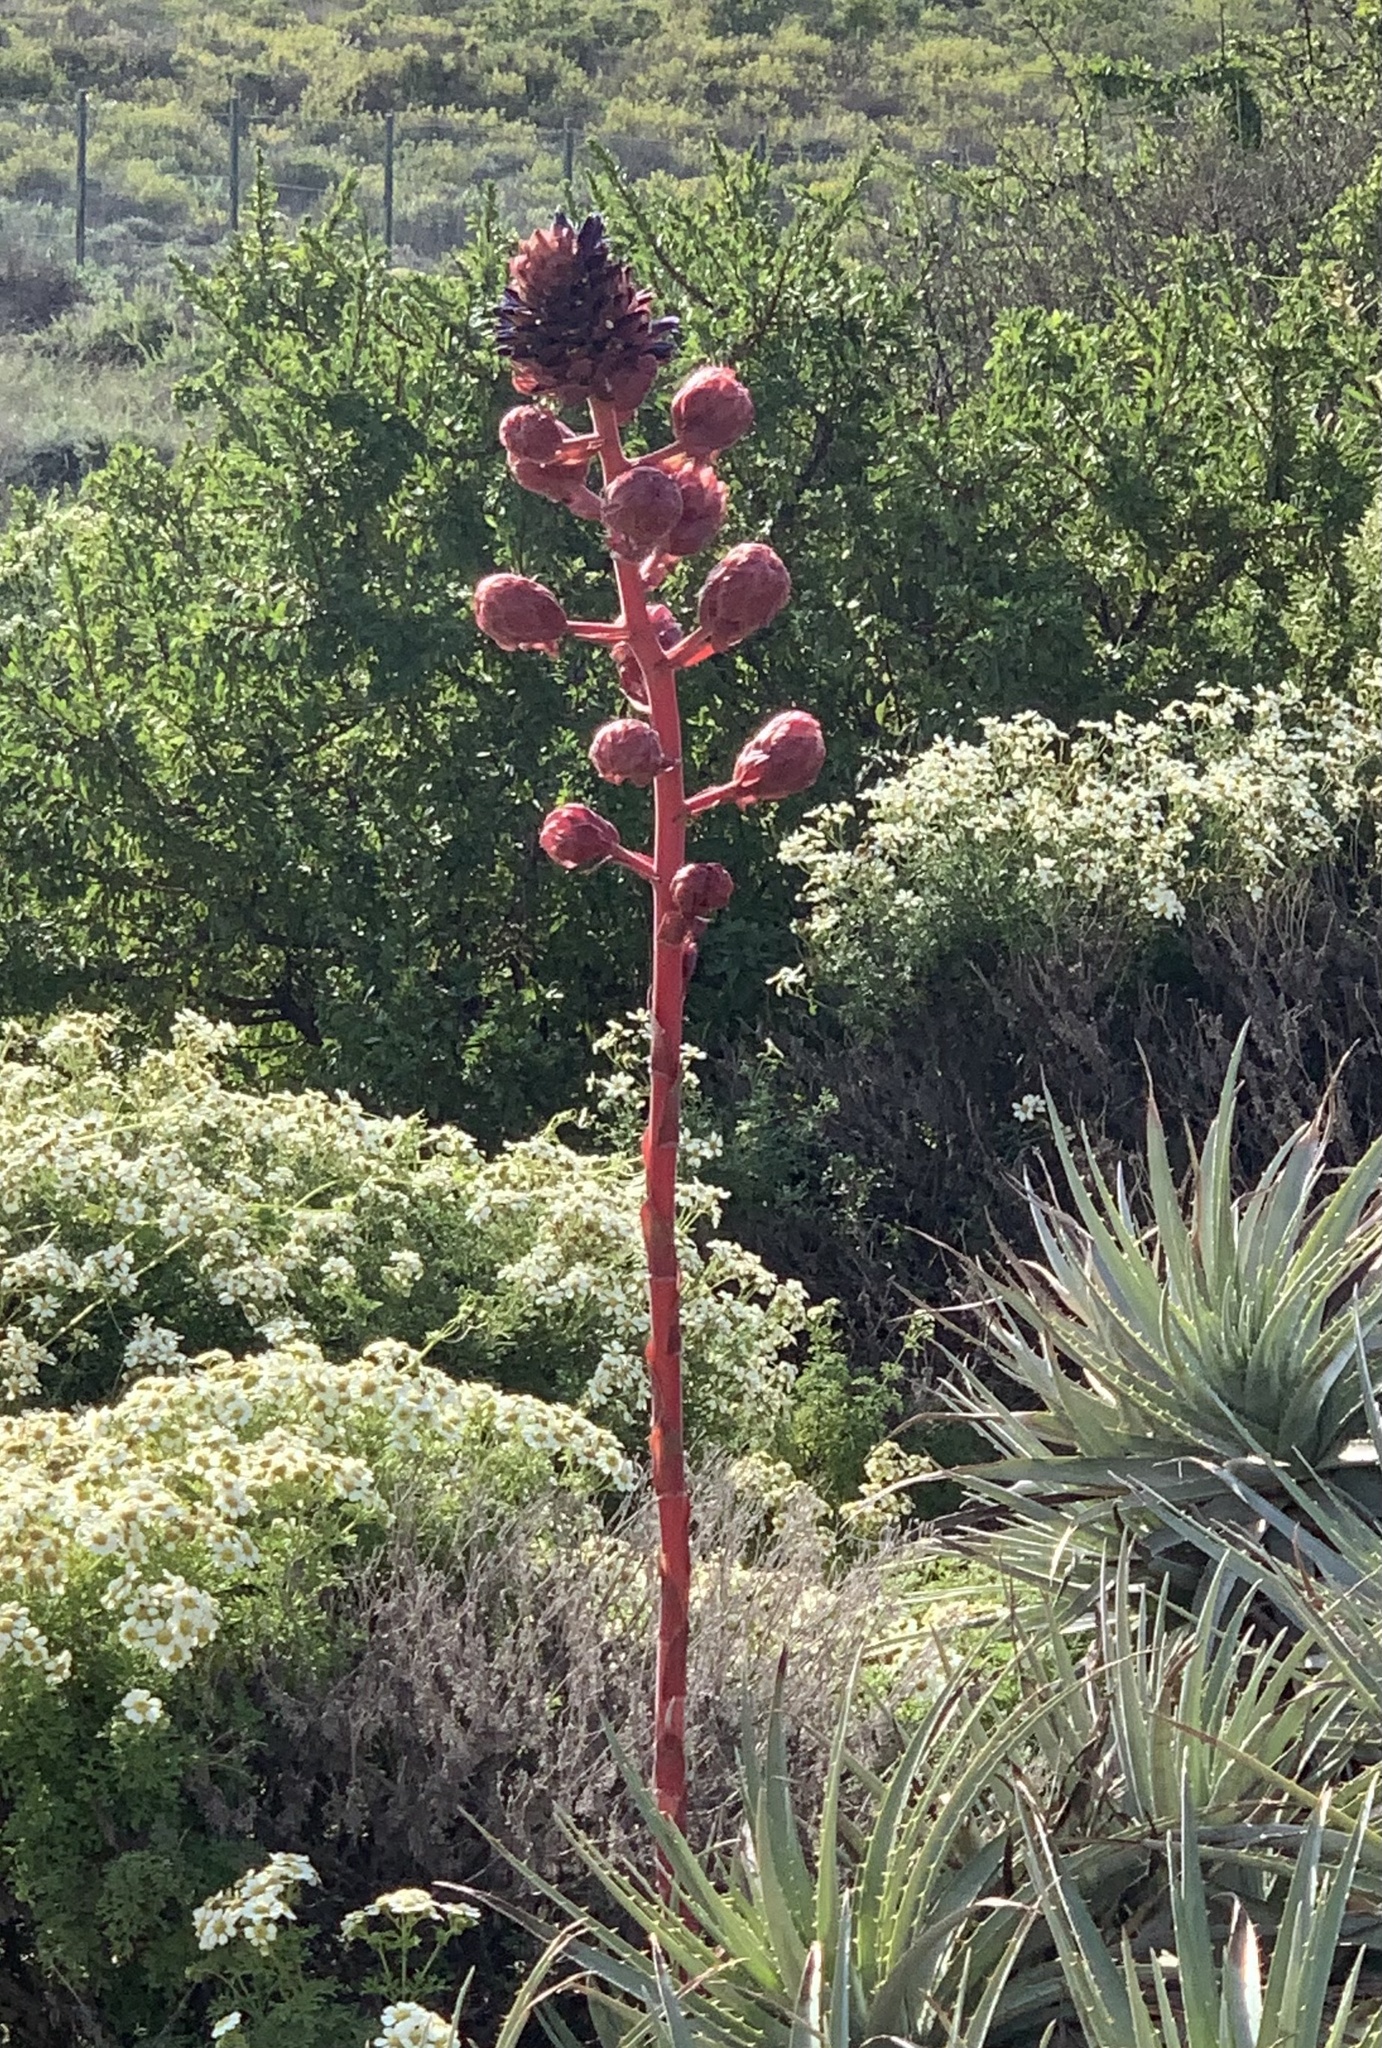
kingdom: Plantae
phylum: Tracheophyta
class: Liliopsida
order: Poales
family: Bromeliaceae
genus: Puya
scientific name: Puya venusta
